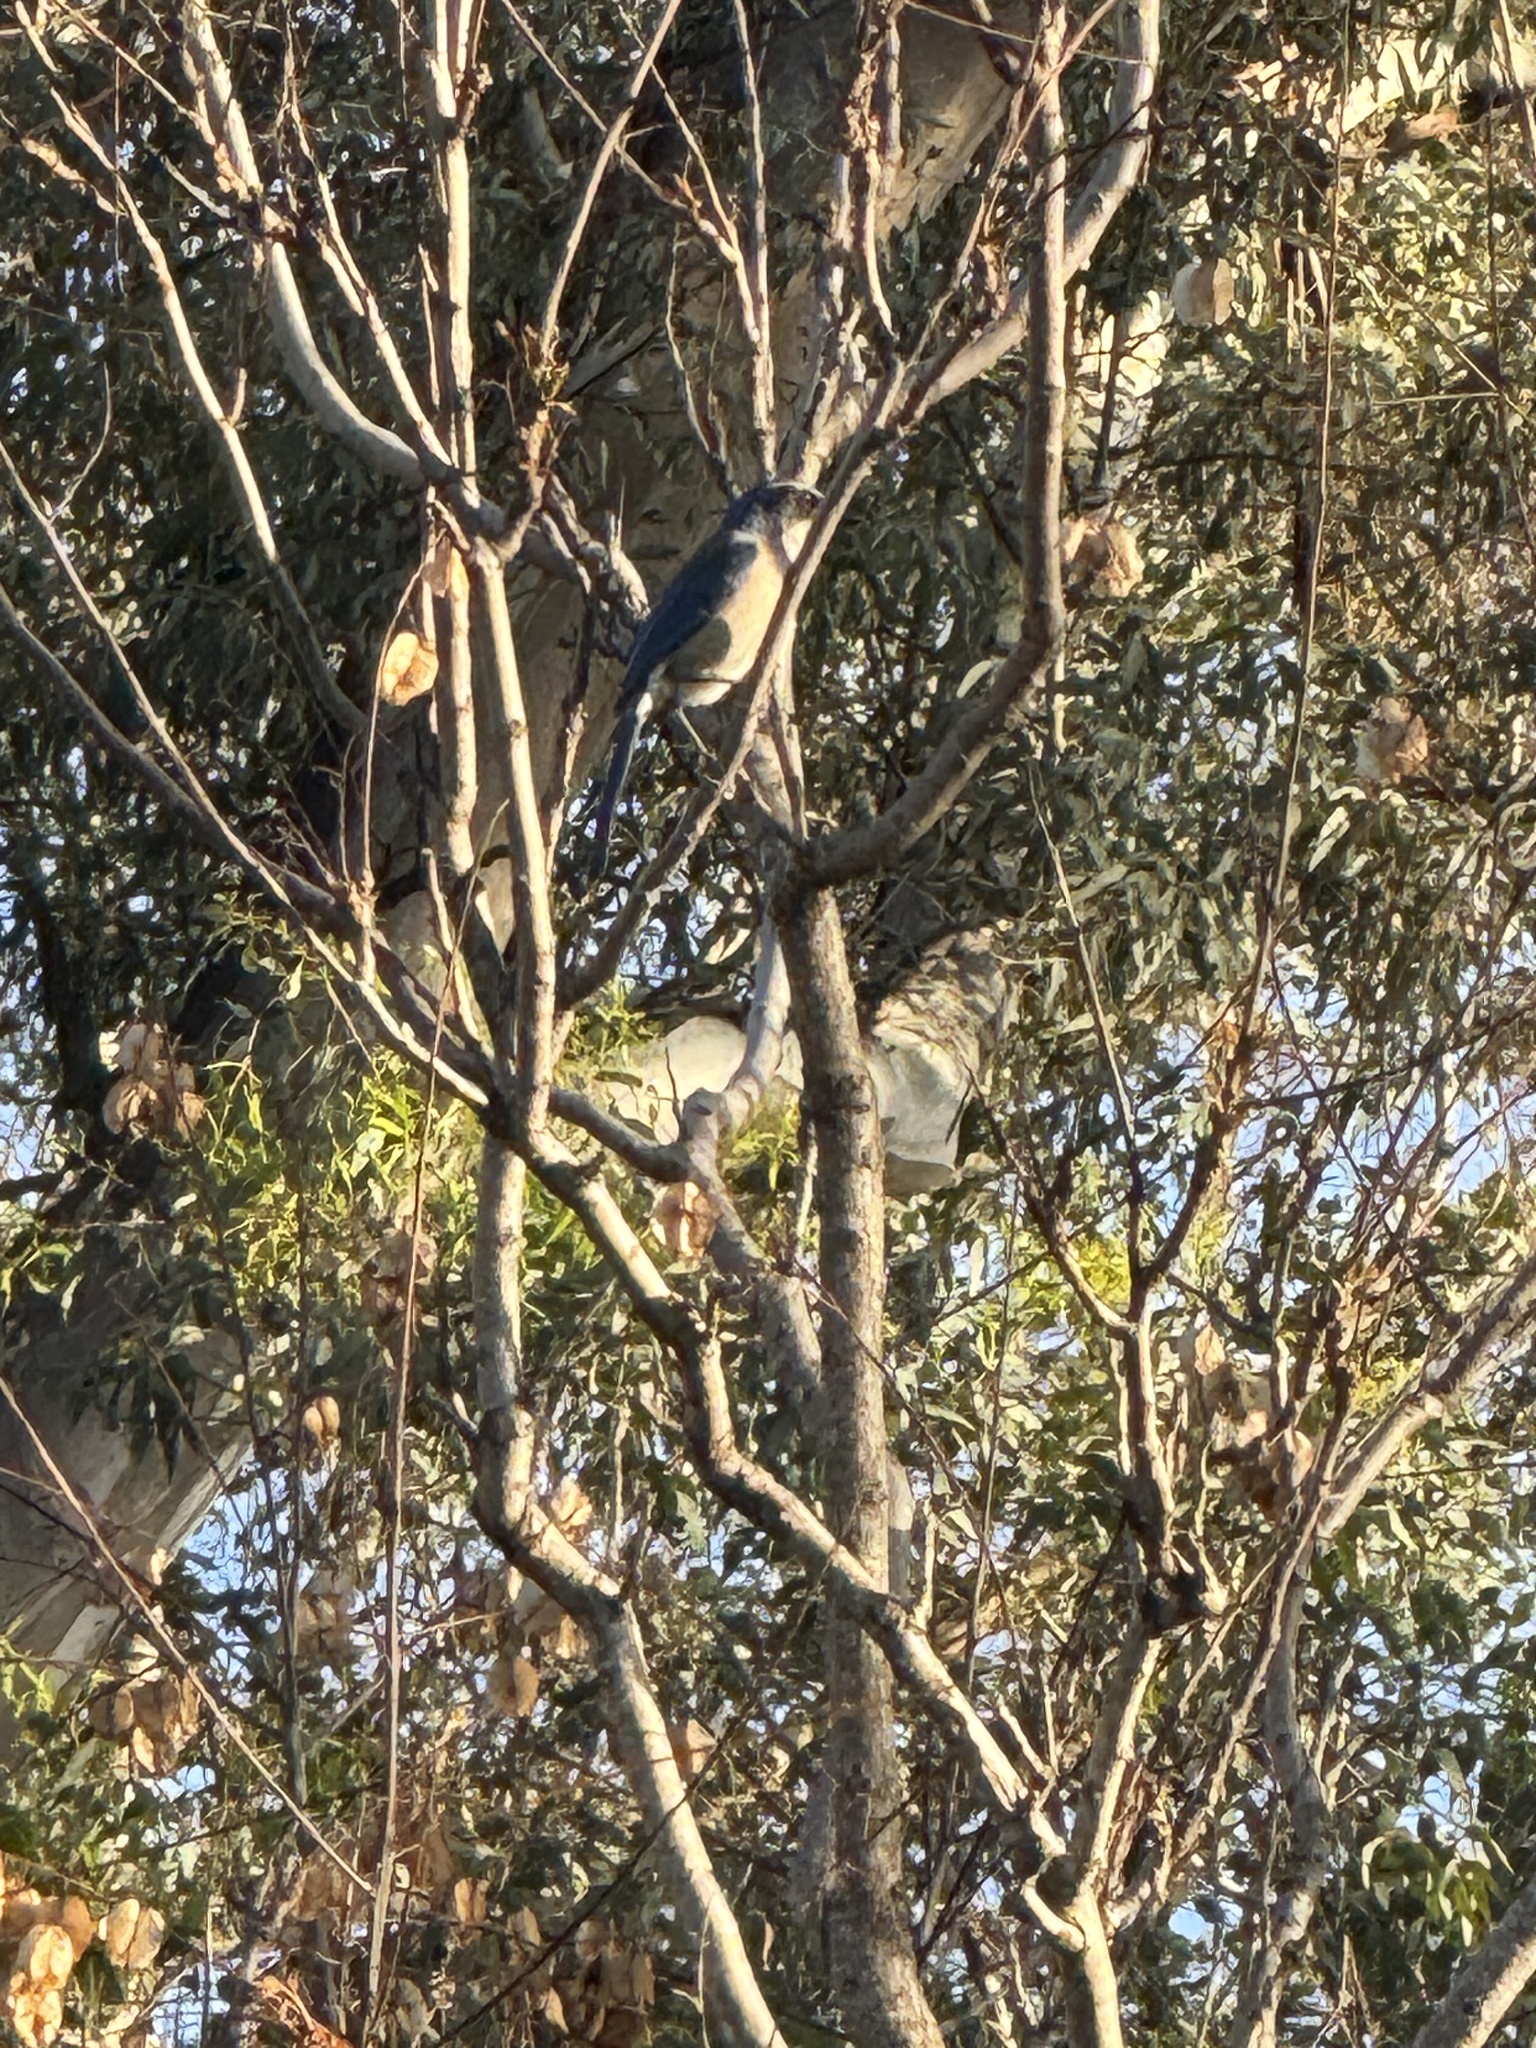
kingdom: Animalia
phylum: Chordata
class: Aves
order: Passeriformes
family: Corvidae
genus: Aphelocoma
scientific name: Aphelocoma californica
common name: California scrub-jay
